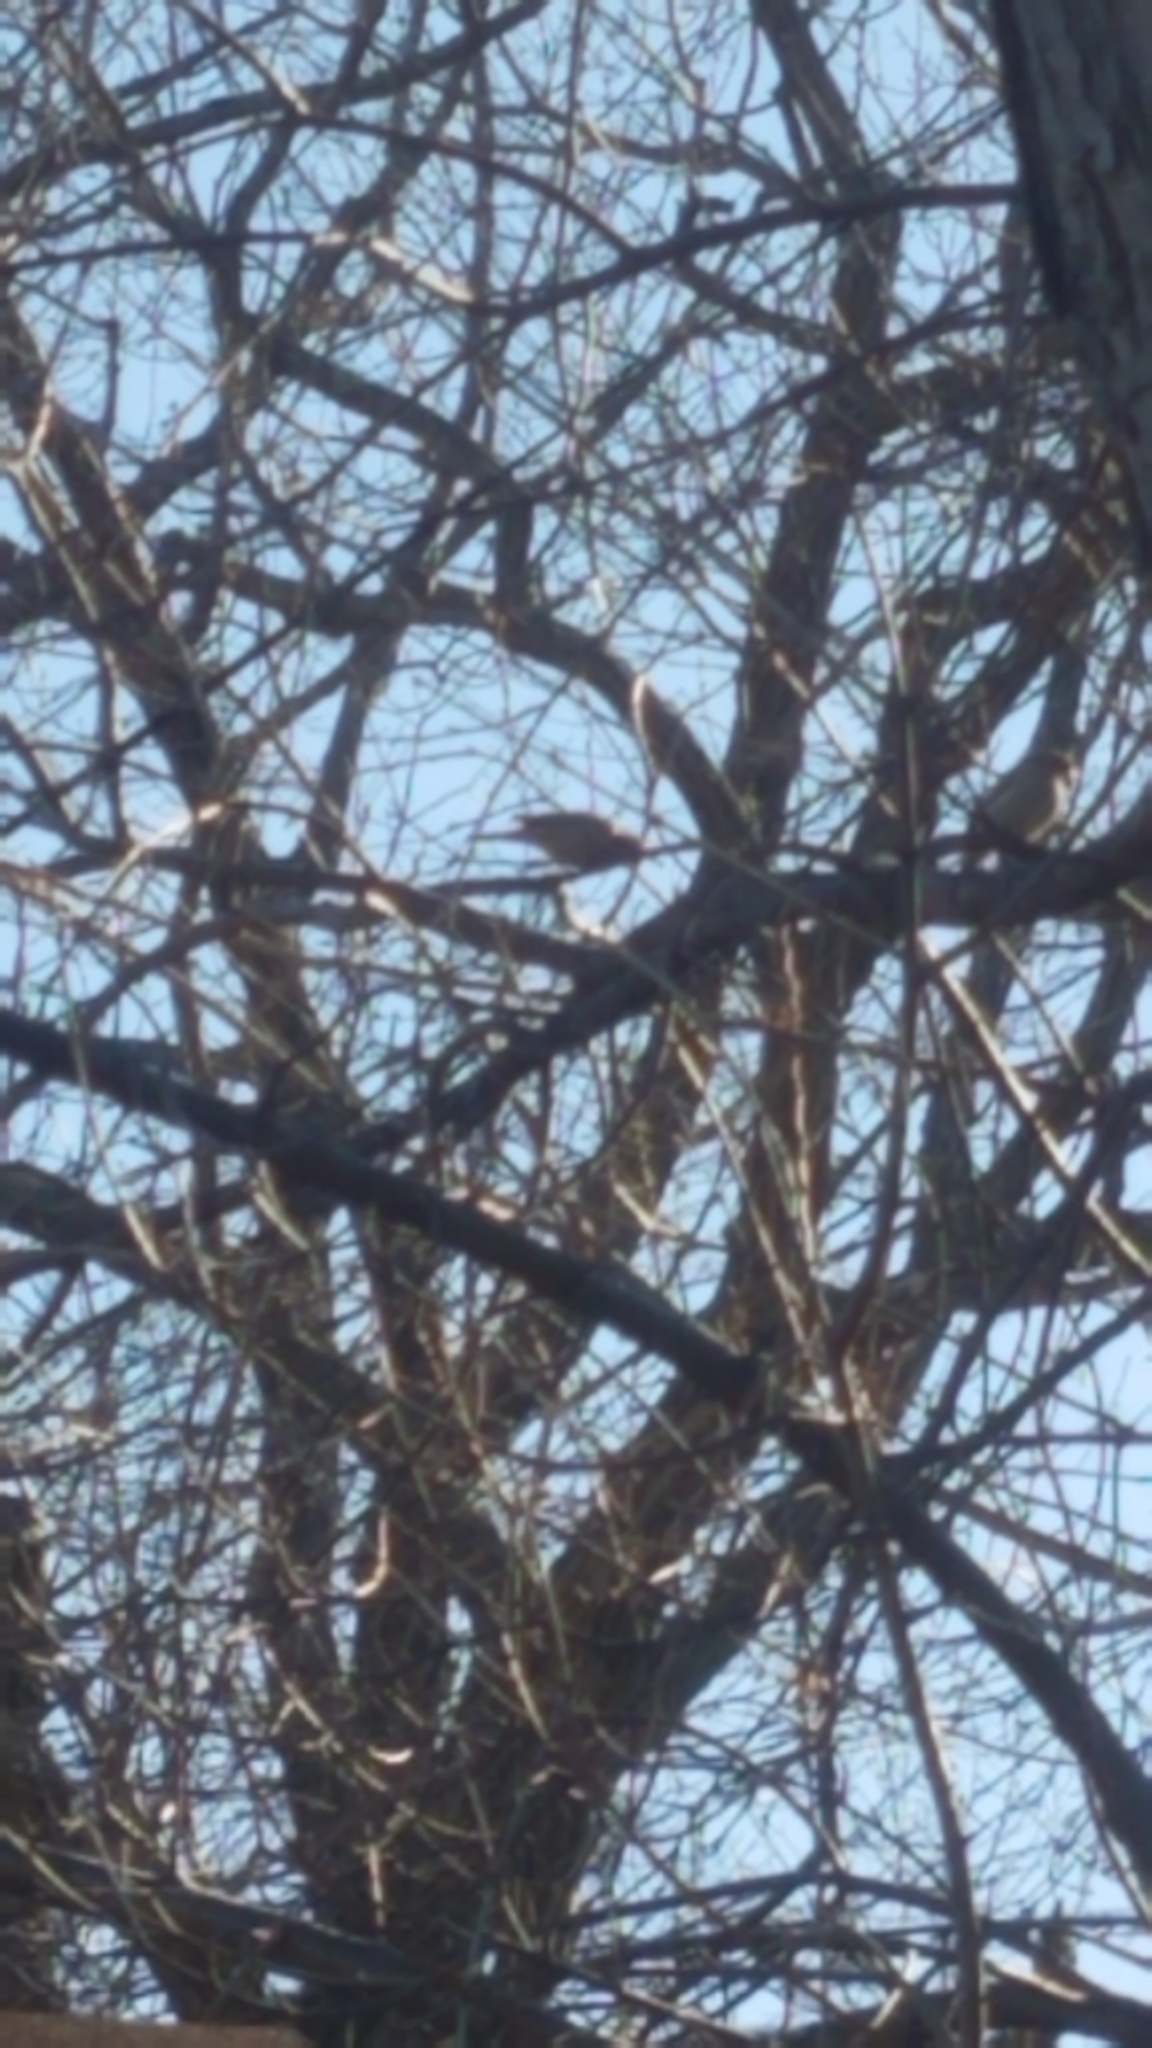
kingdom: Animalia
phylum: Chordata
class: Aves
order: Columbiformes
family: Columbidae
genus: Zenaida
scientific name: Zenaida macroura
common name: Mourning dove
